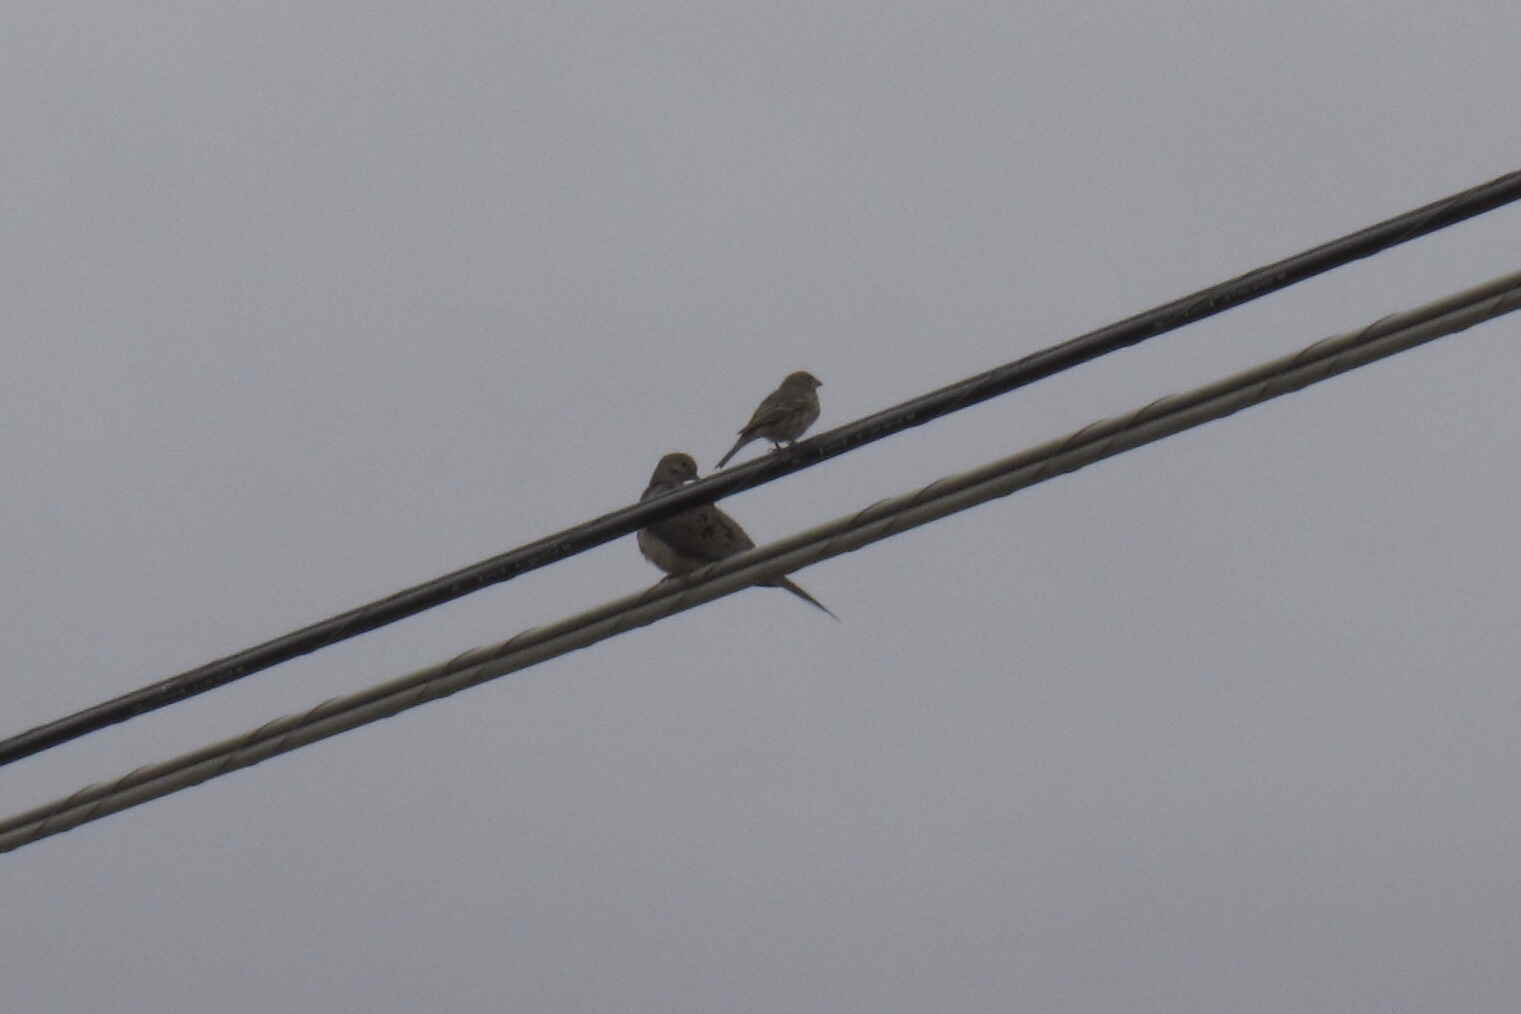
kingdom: Animalia
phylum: Chordata
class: Aves
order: Columbiformes
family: Columbidae
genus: Zenaida
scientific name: Zenaida macroura
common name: Mourning dove
